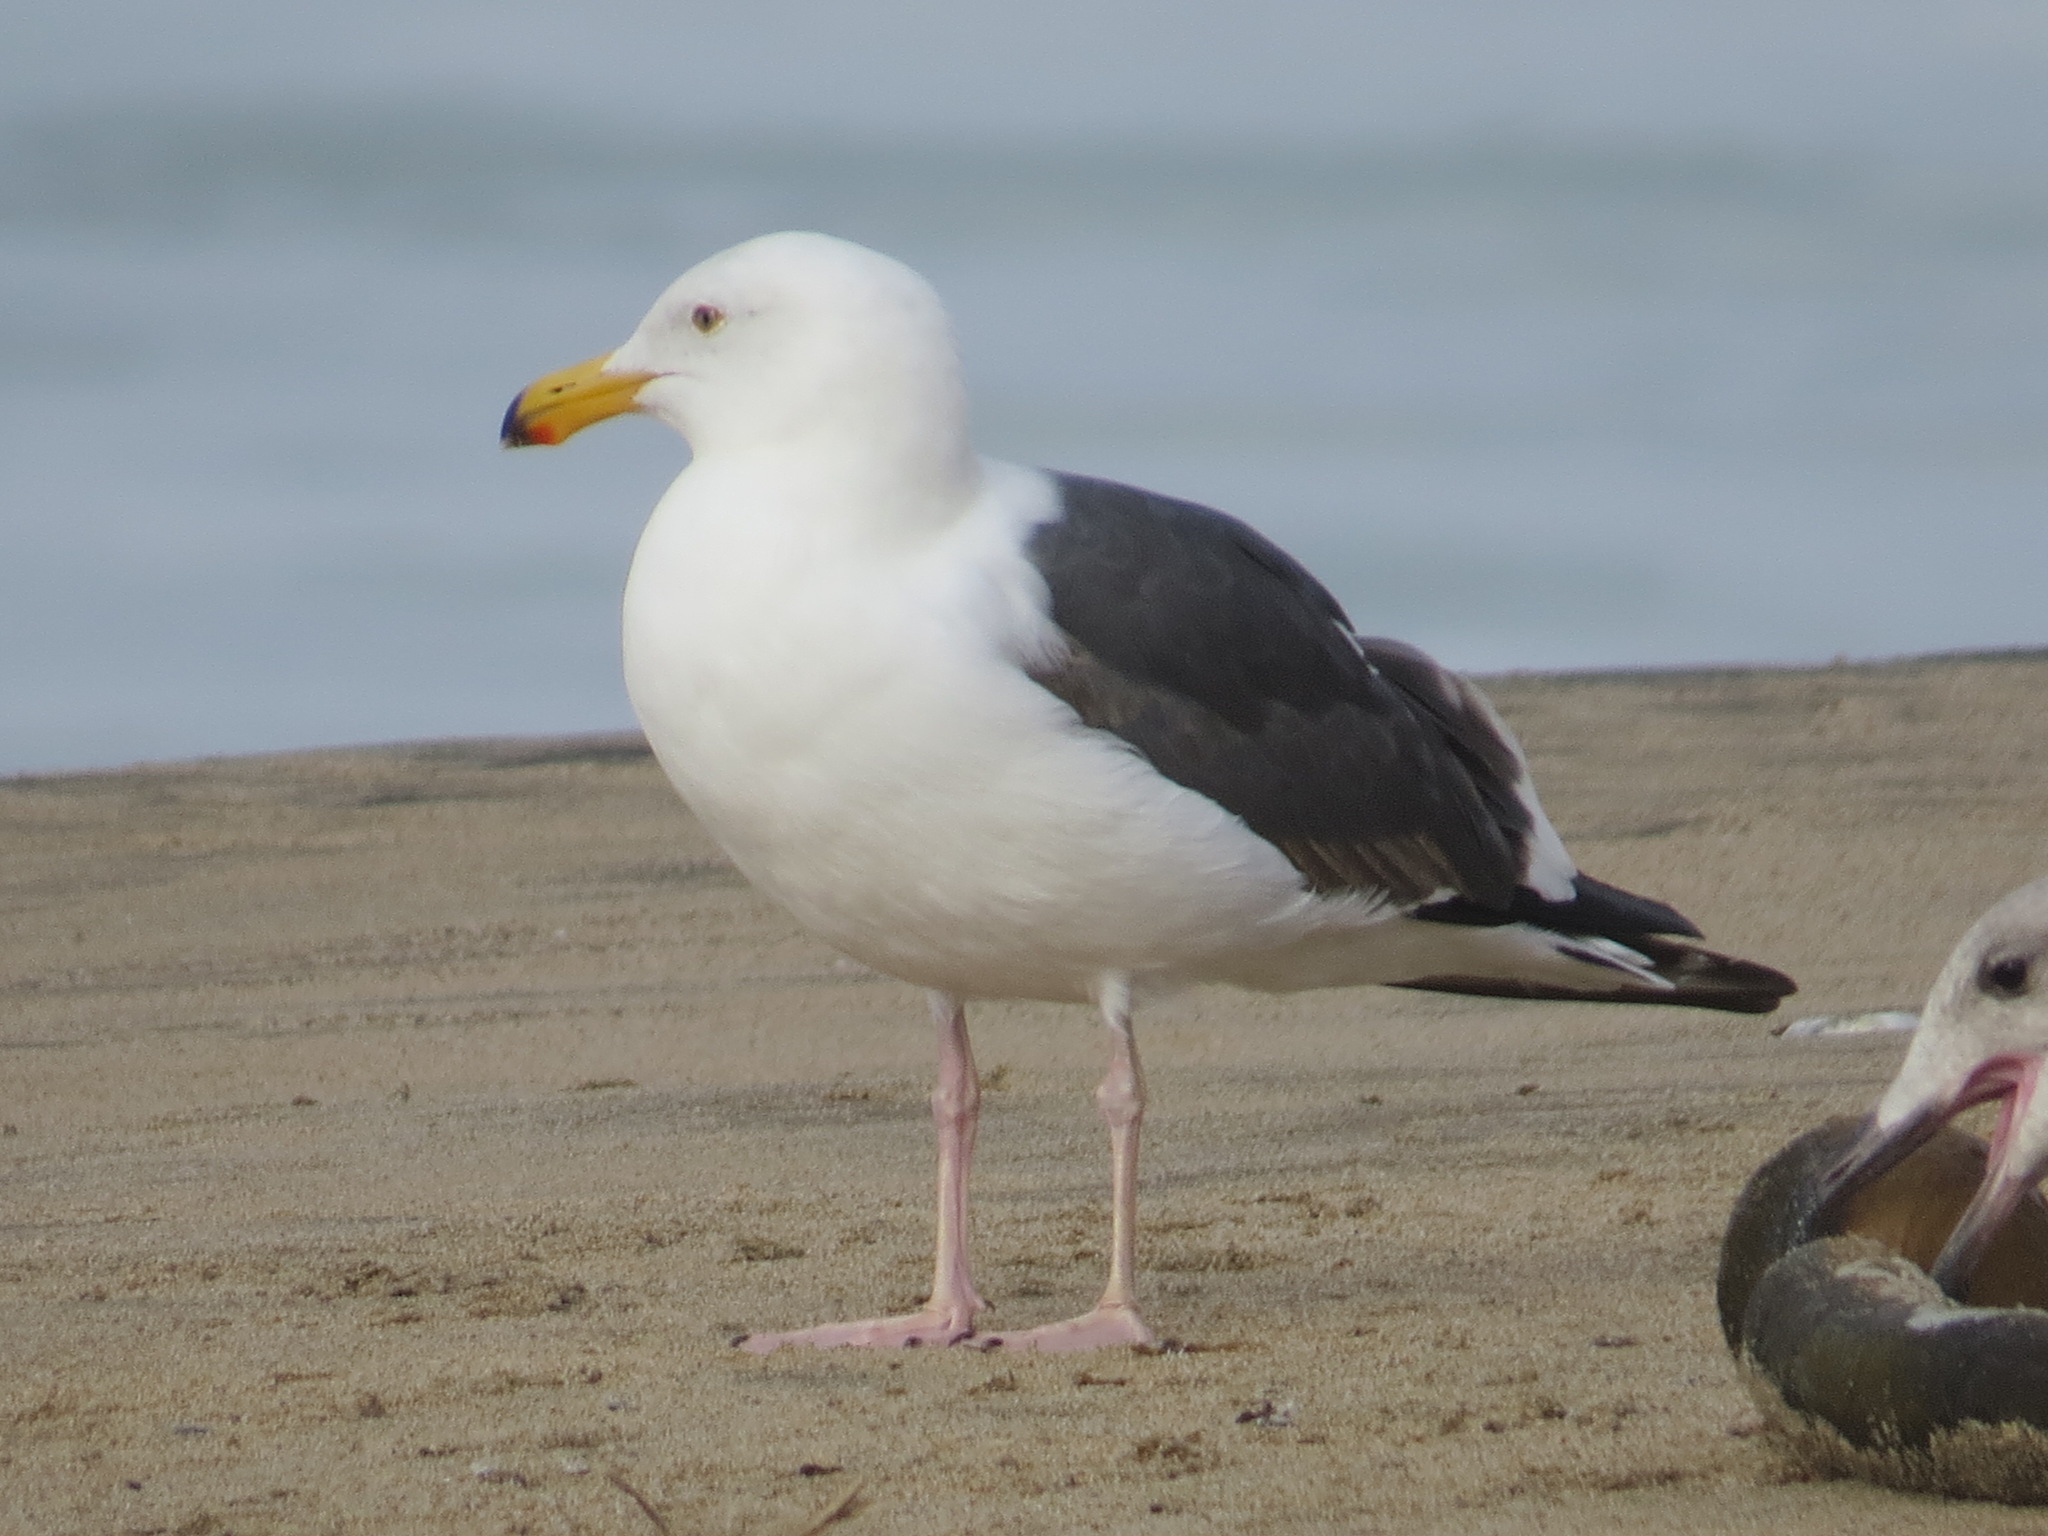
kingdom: Animalia
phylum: Chordata
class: Aves
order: Charadriiformes
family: Laridae
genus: Larus
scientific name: Larus occidentalis
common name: Western gull
